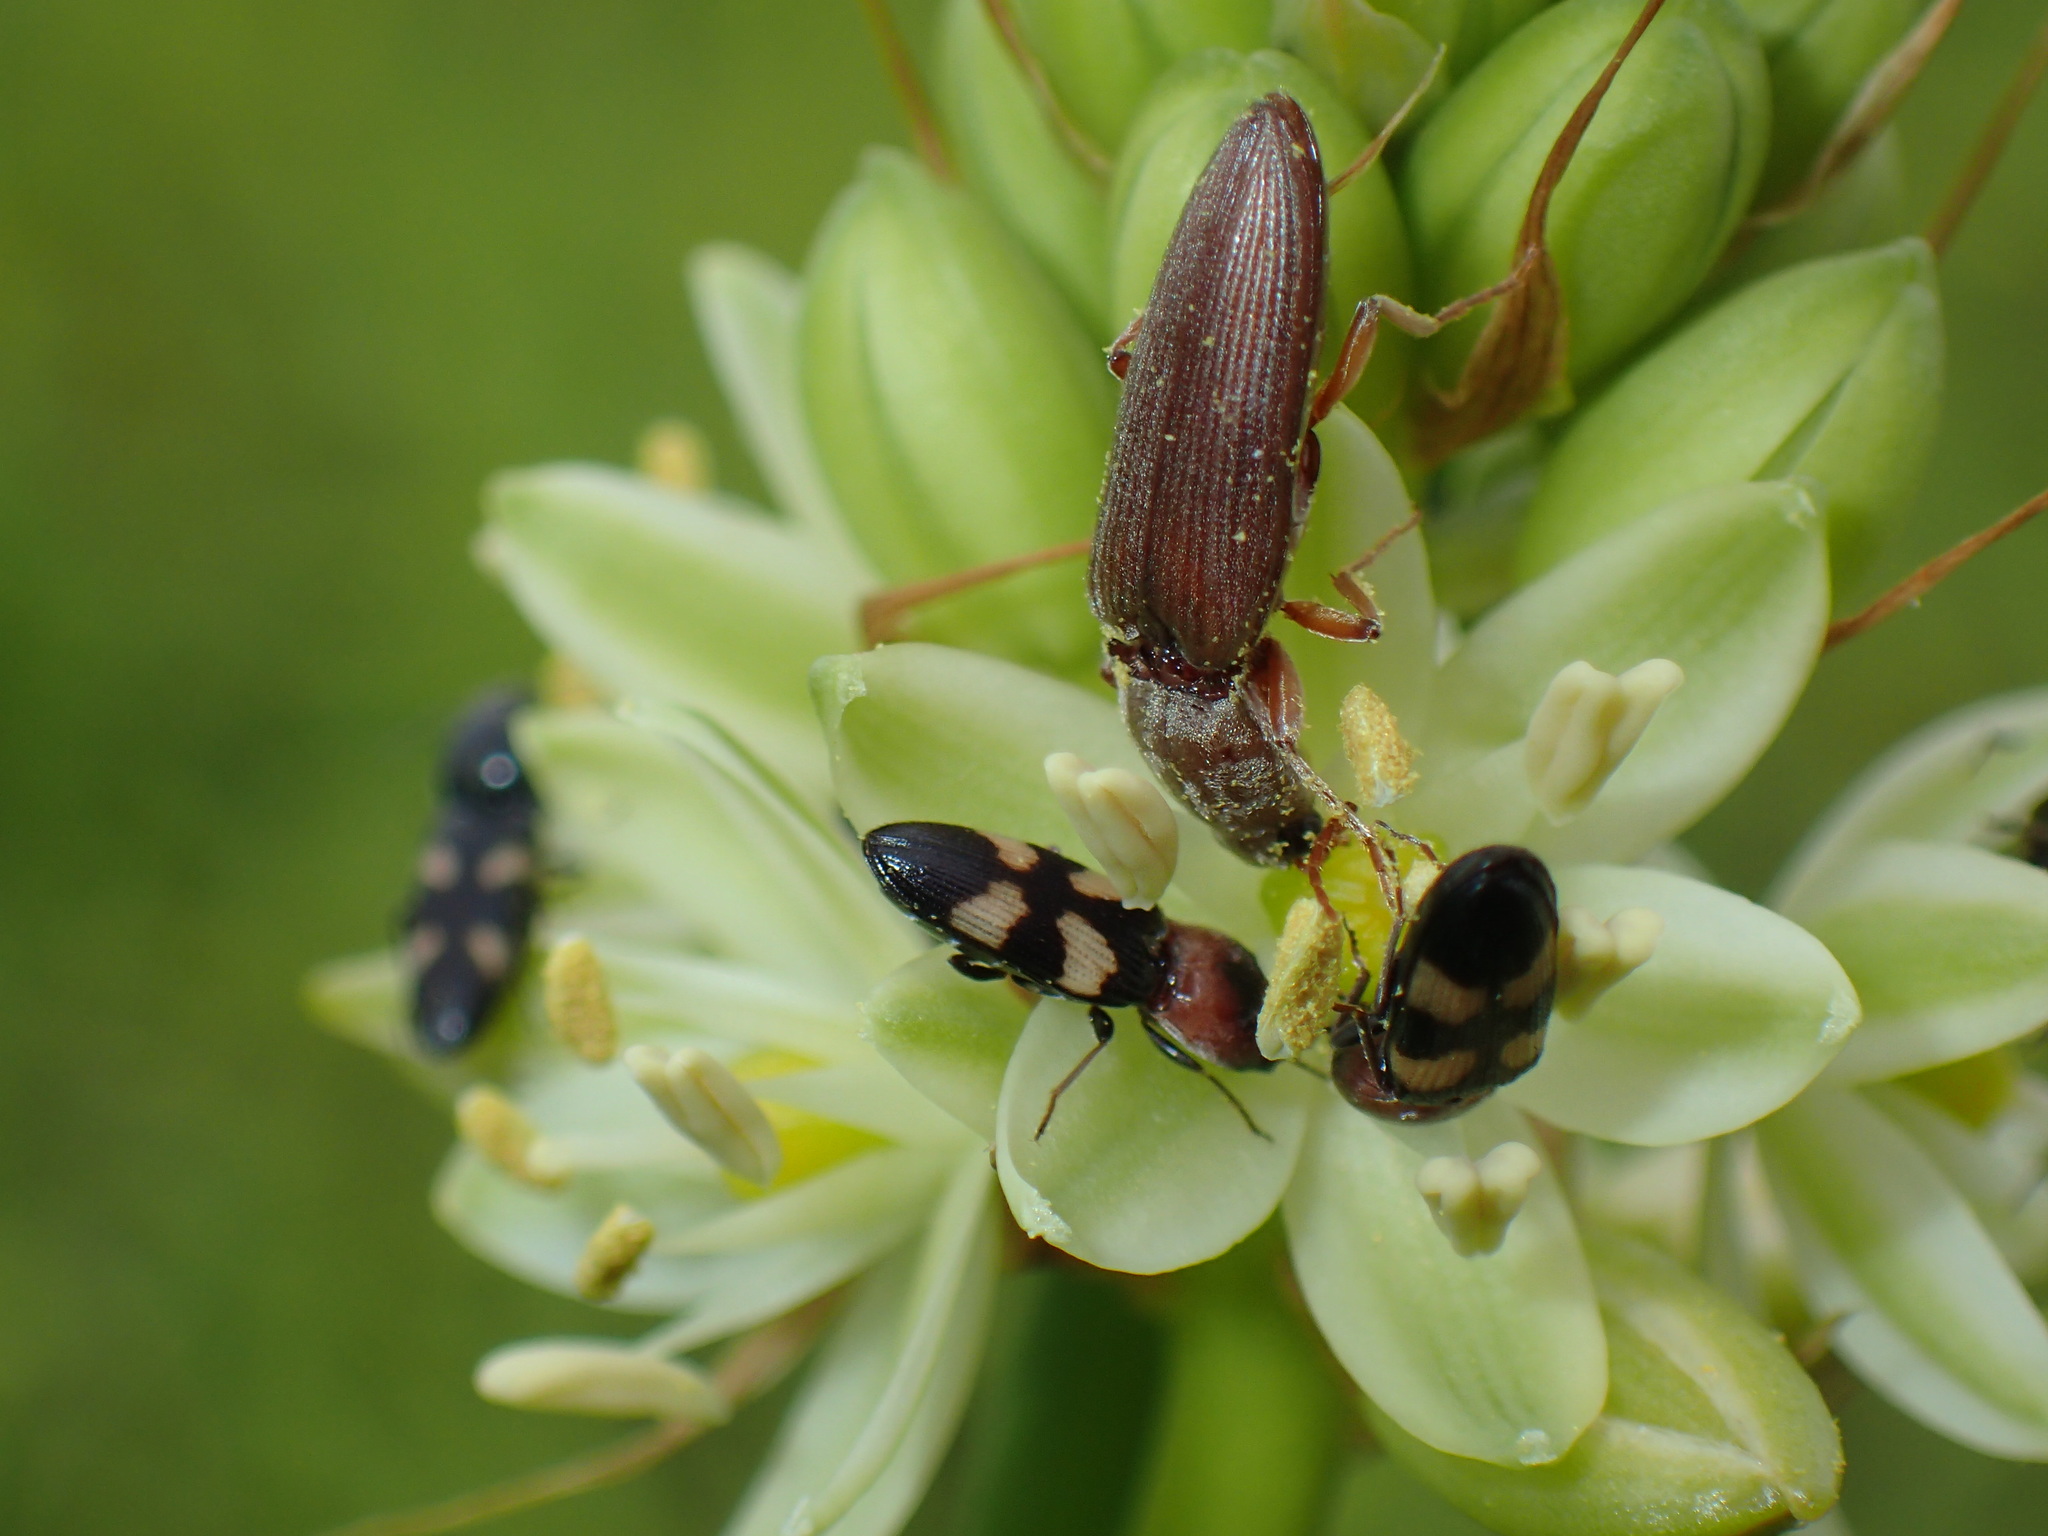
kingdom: Plantae
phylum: Tracheophyta
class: Liliopsida
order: Asparagales
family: Asparagaceae
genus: Albuca
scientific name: Albuca virens
